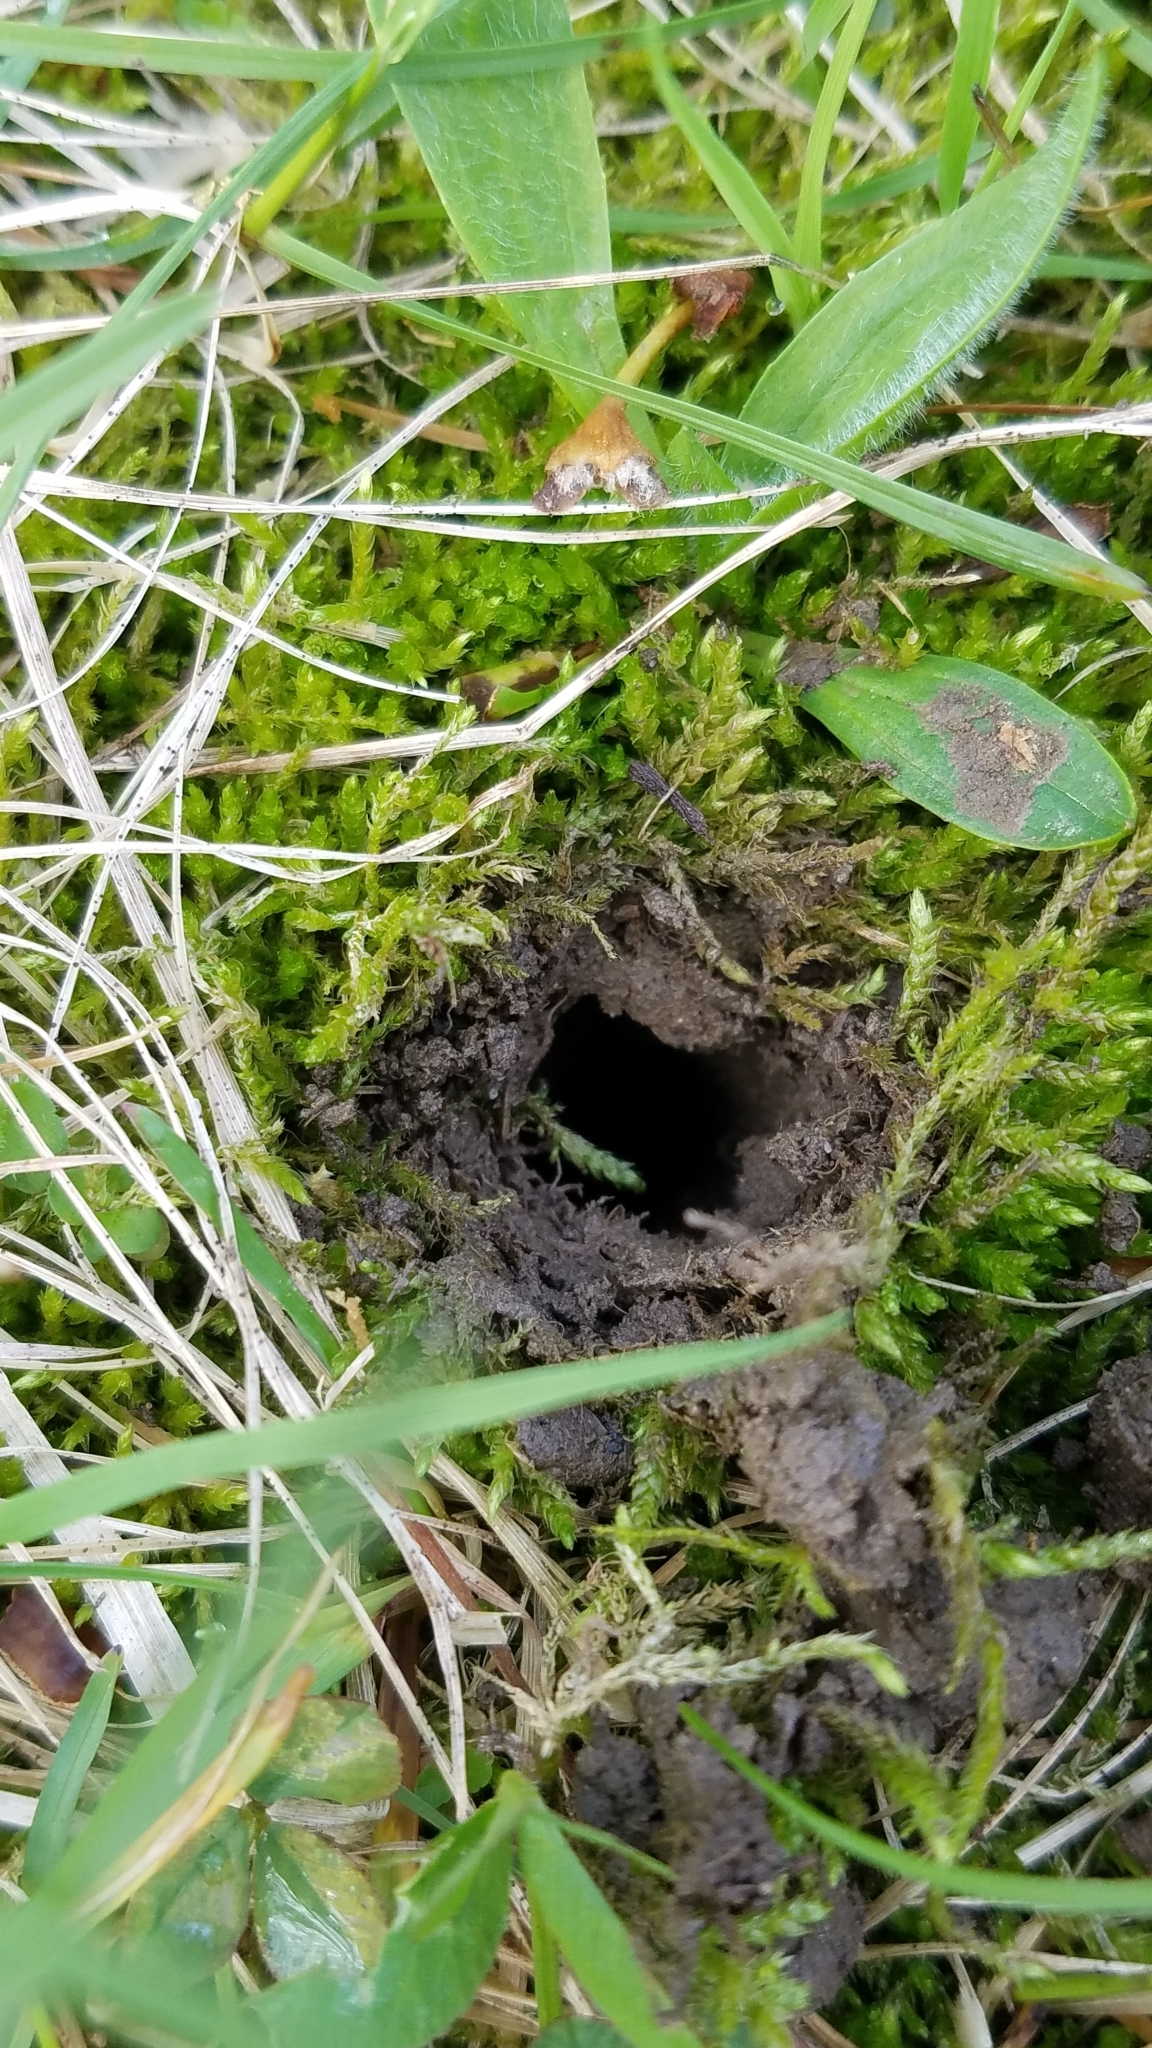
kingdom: Animalia
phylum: Arthropoda
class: Insecta
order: Hemiptera
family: Cicadidae
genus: Magicicada
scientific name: Magicicada
